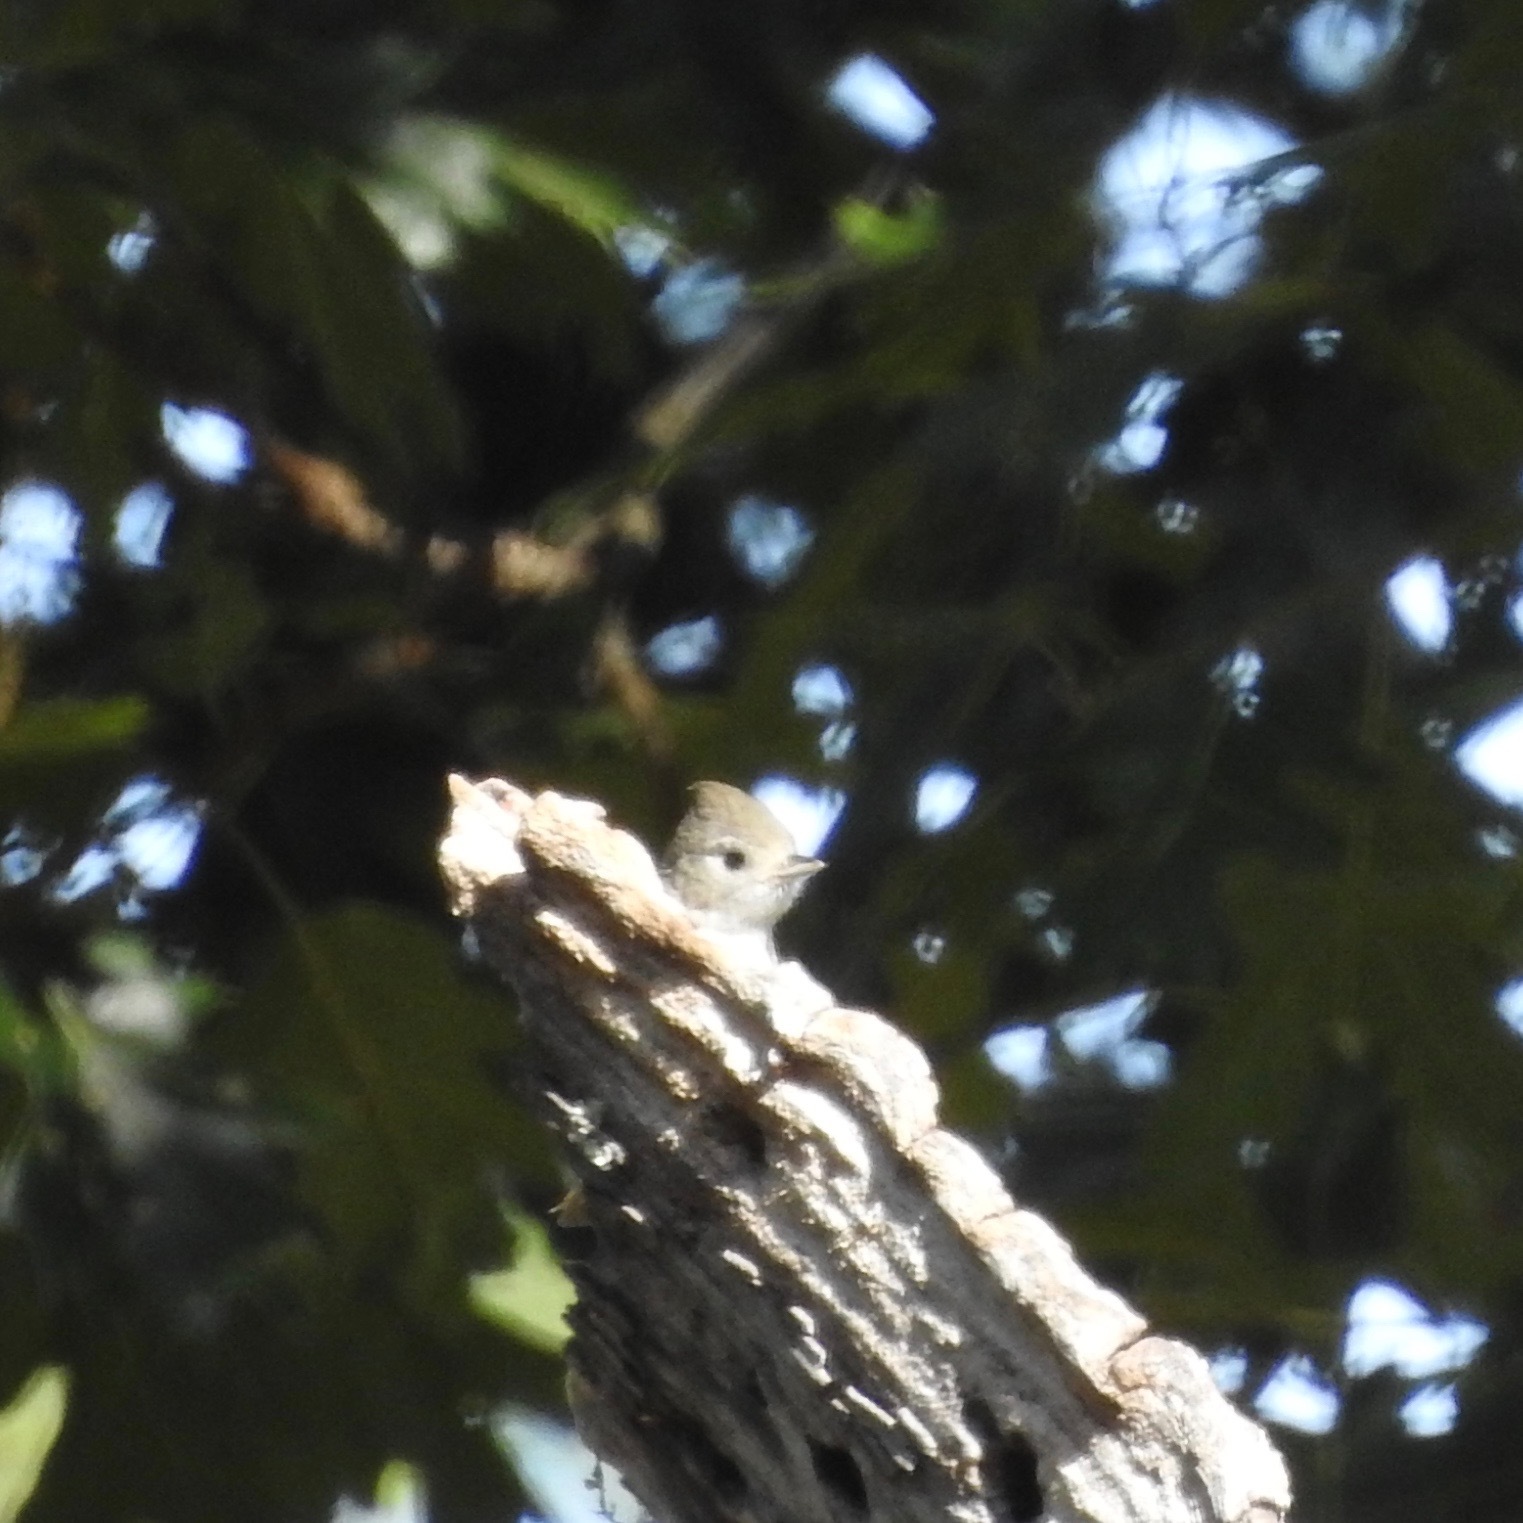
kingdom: Animalia
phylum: Chordata
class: Aves
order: Passeriformes
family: Paridae
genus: Baeolophus
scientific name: Baeolophus inornatus
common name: Oak titmouse
